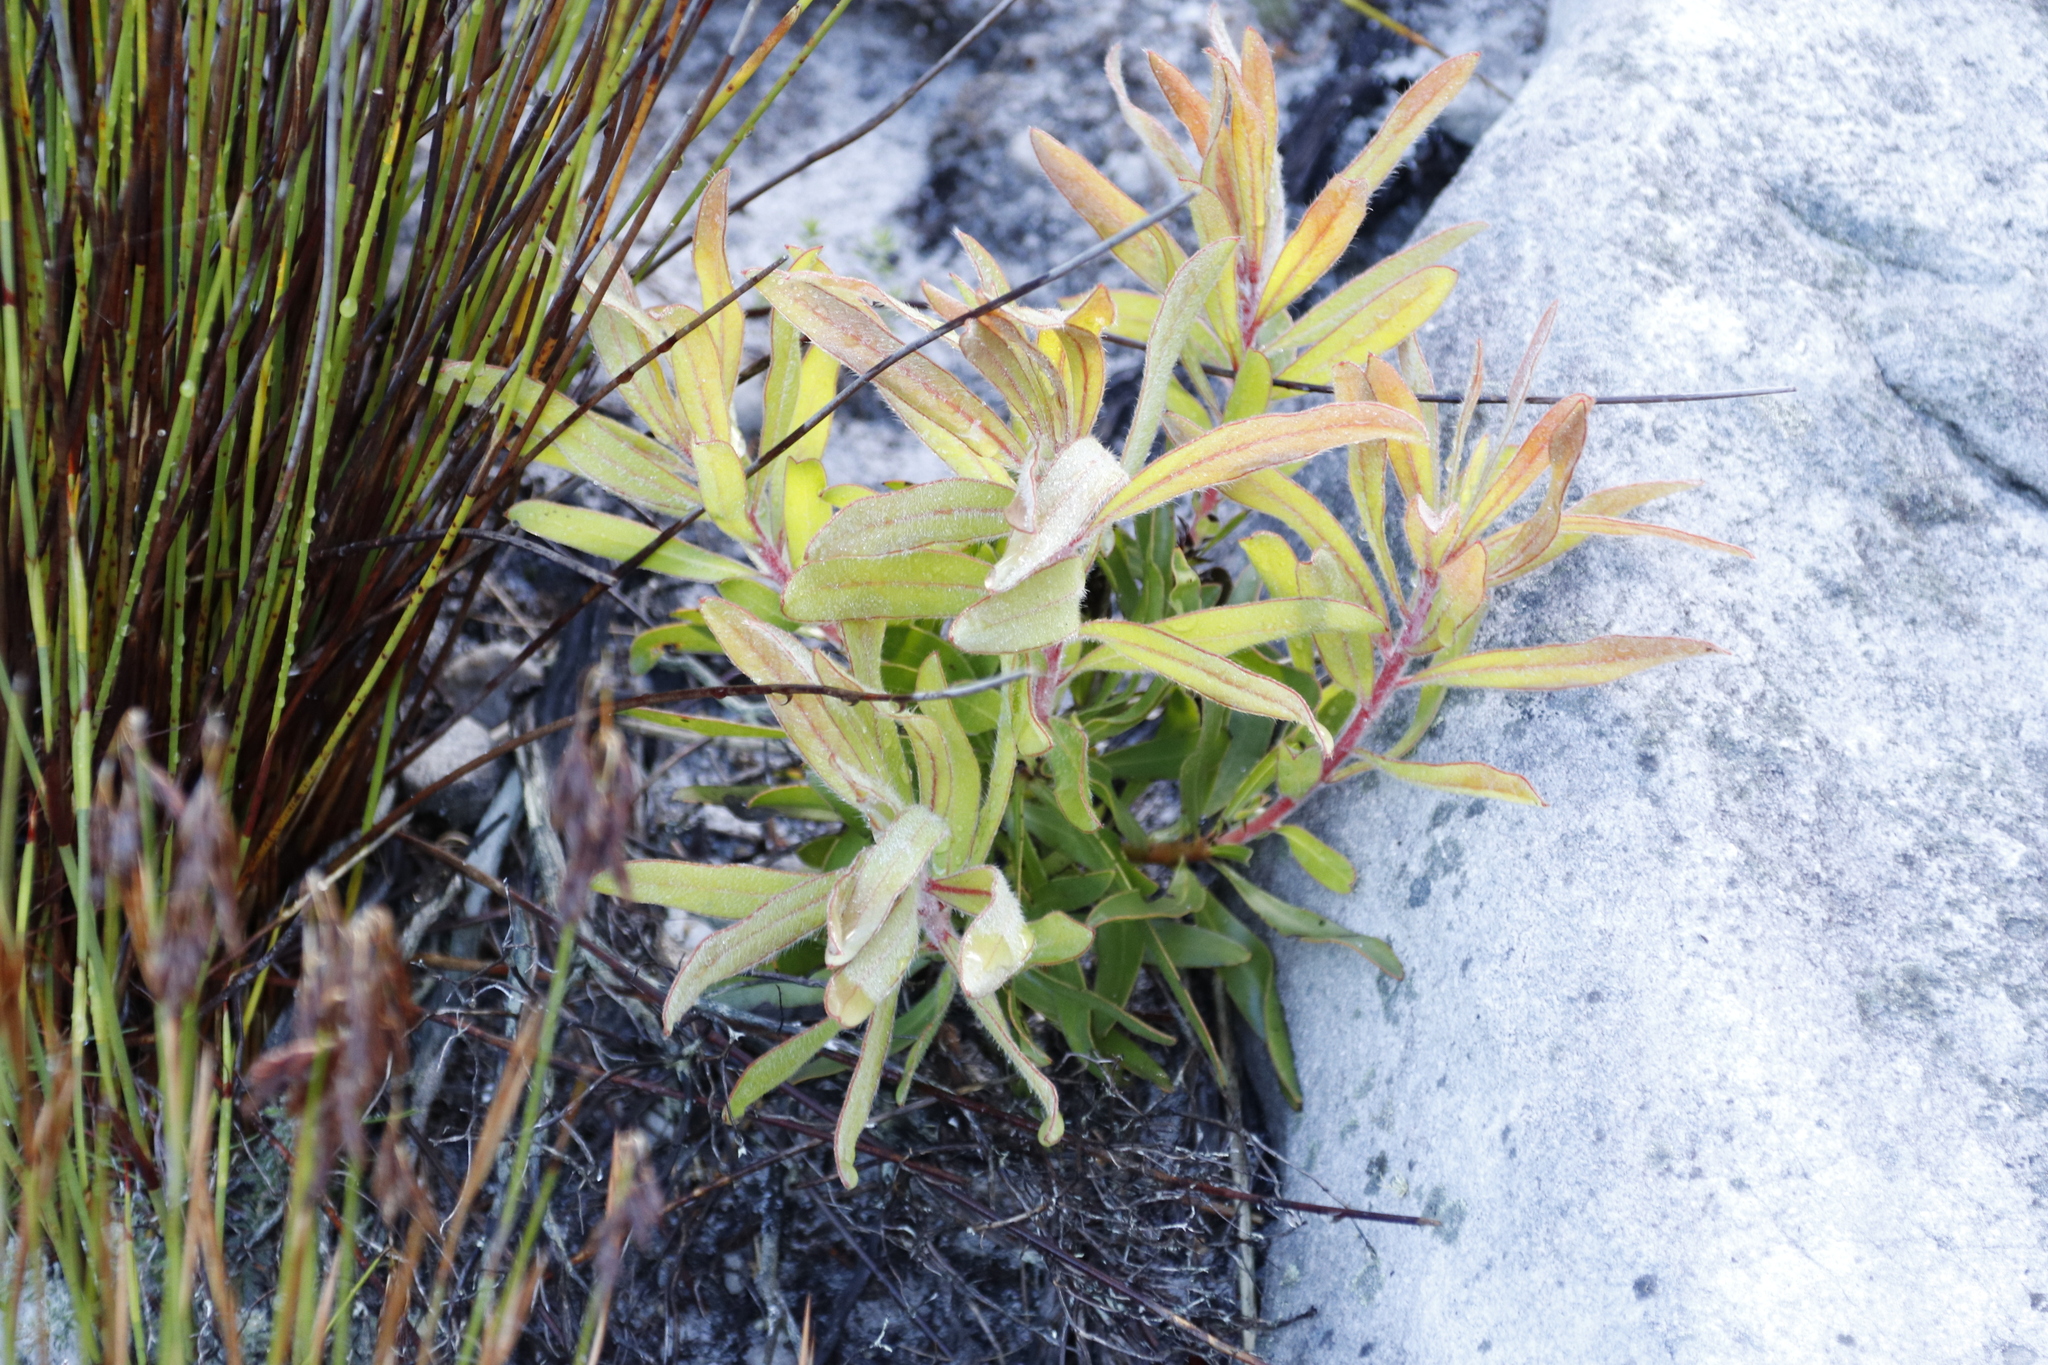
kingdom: Plantae
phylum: Tracheophyta
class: Magnoliopsida
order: Proteales
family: Proteaceae
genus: Protea
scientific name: Protea lepidocarpodendron
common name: Black-bearded protea
